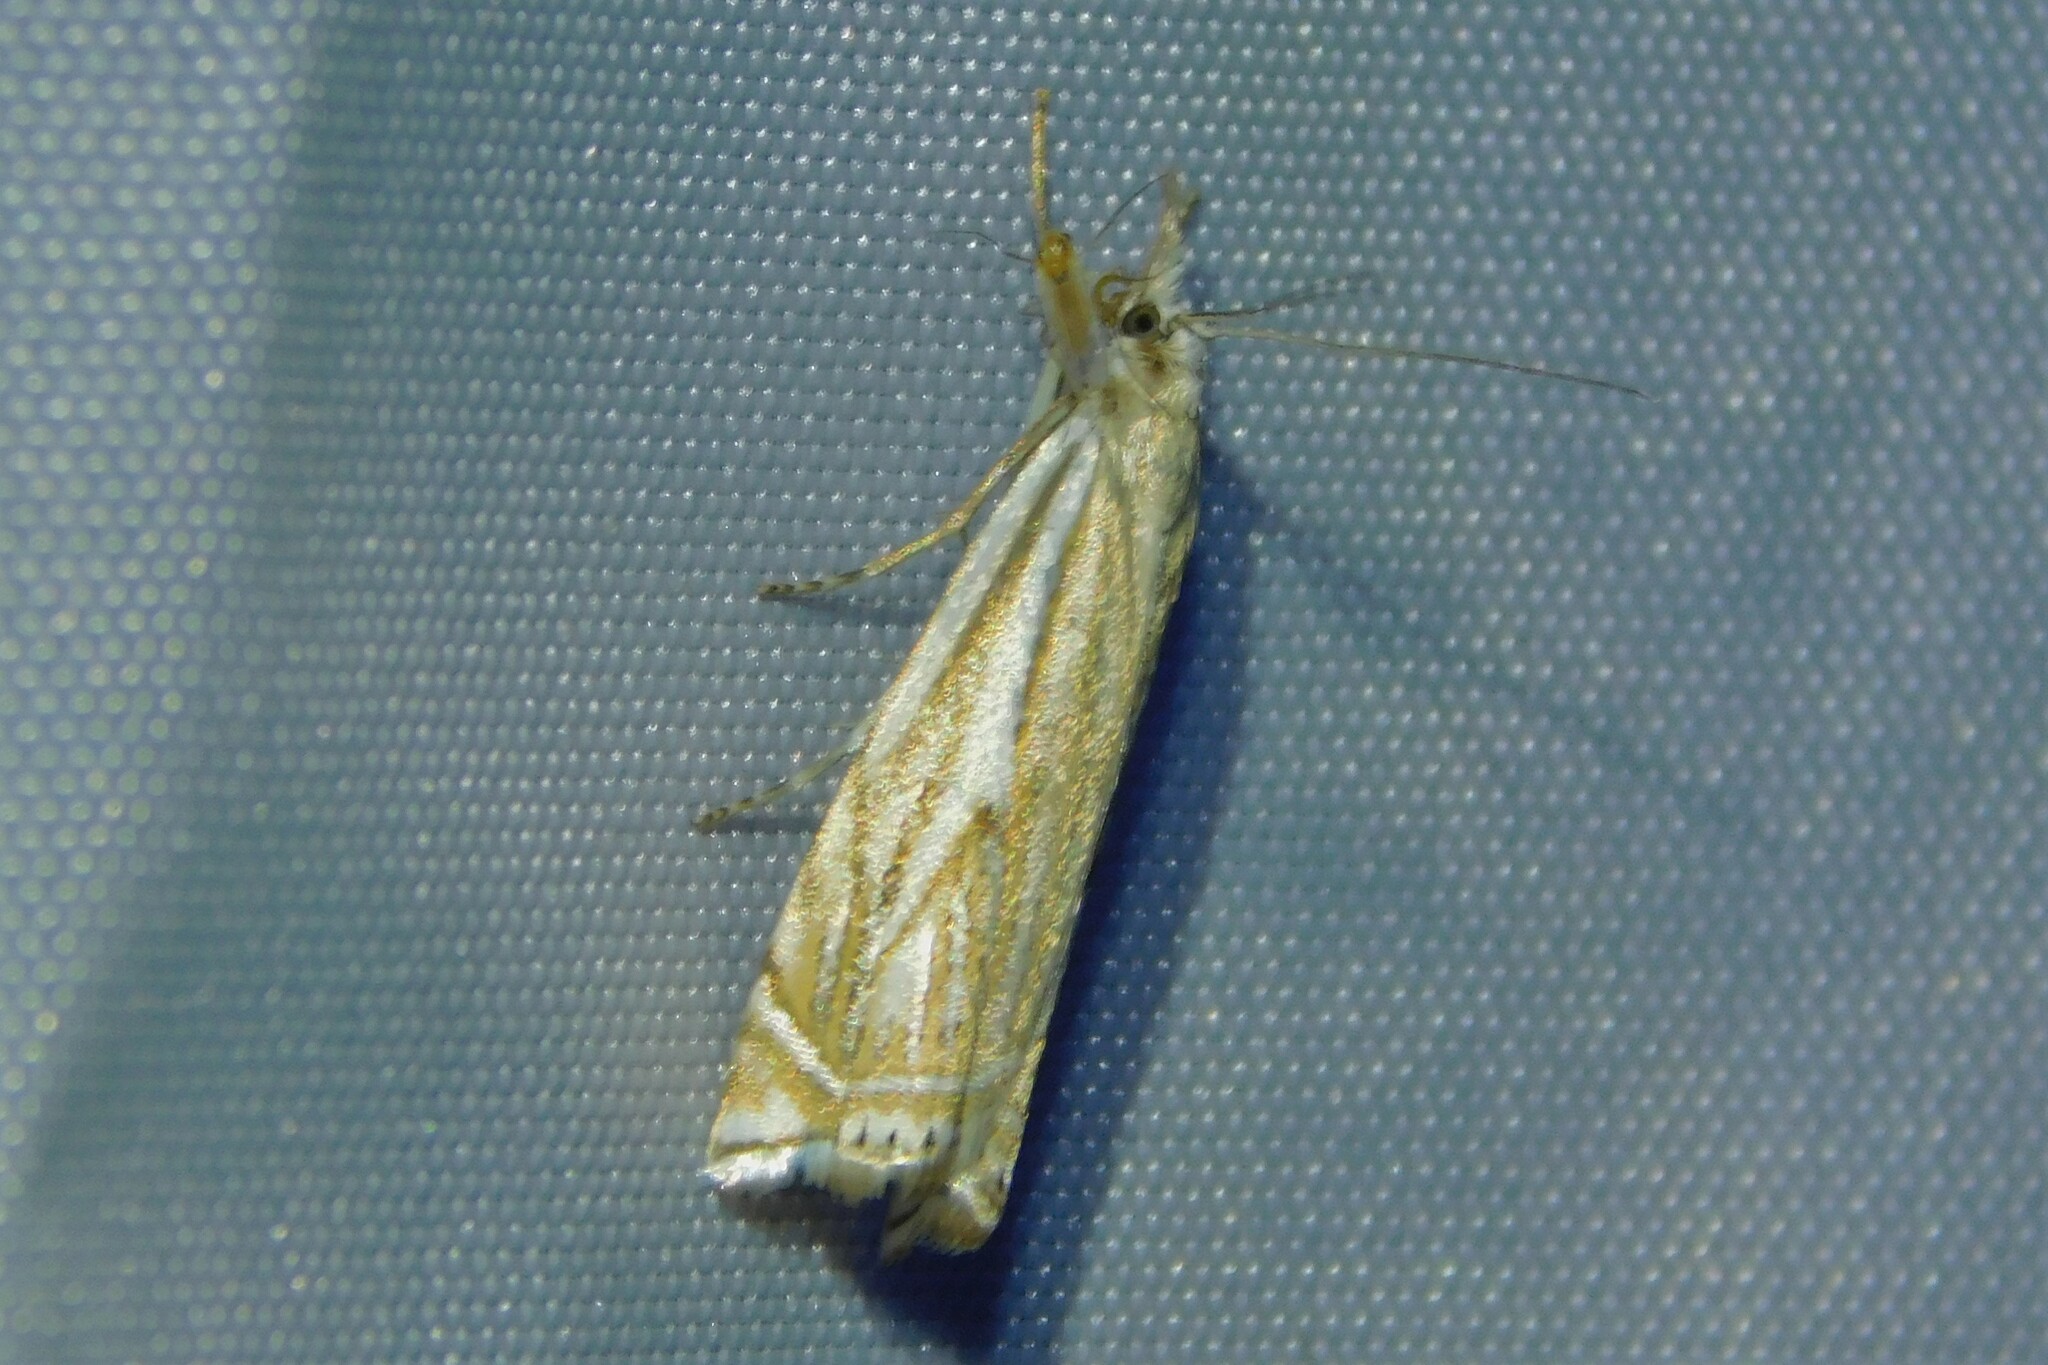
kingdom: Animalia
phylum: Arthropoda
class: Insecta
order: Lepidoptera
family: Crambidae
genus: Crambus
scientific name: Crambus nemorella
